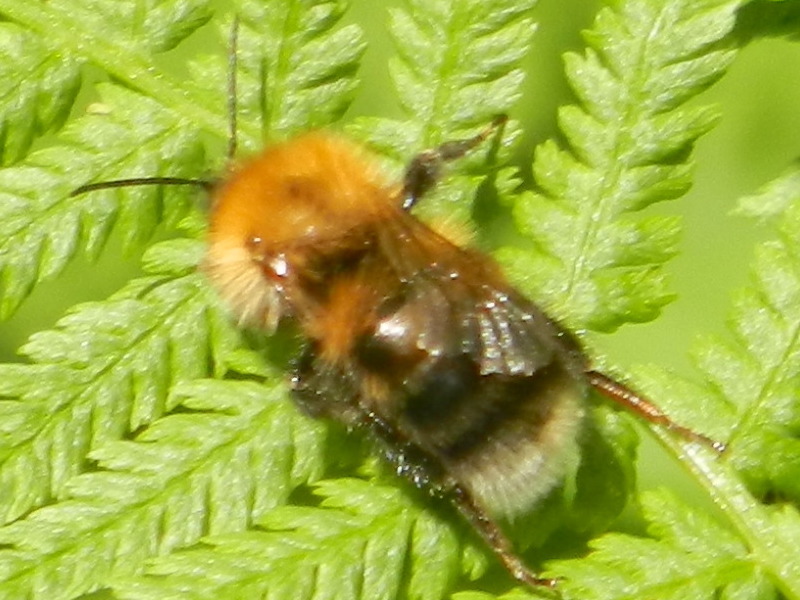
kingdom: Animalia
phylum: Arthropoda
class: Insecta
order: Hymenoptera
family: Apidae
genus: Bombus
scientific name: Bombus hypnorum
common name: New garden bumblebee
